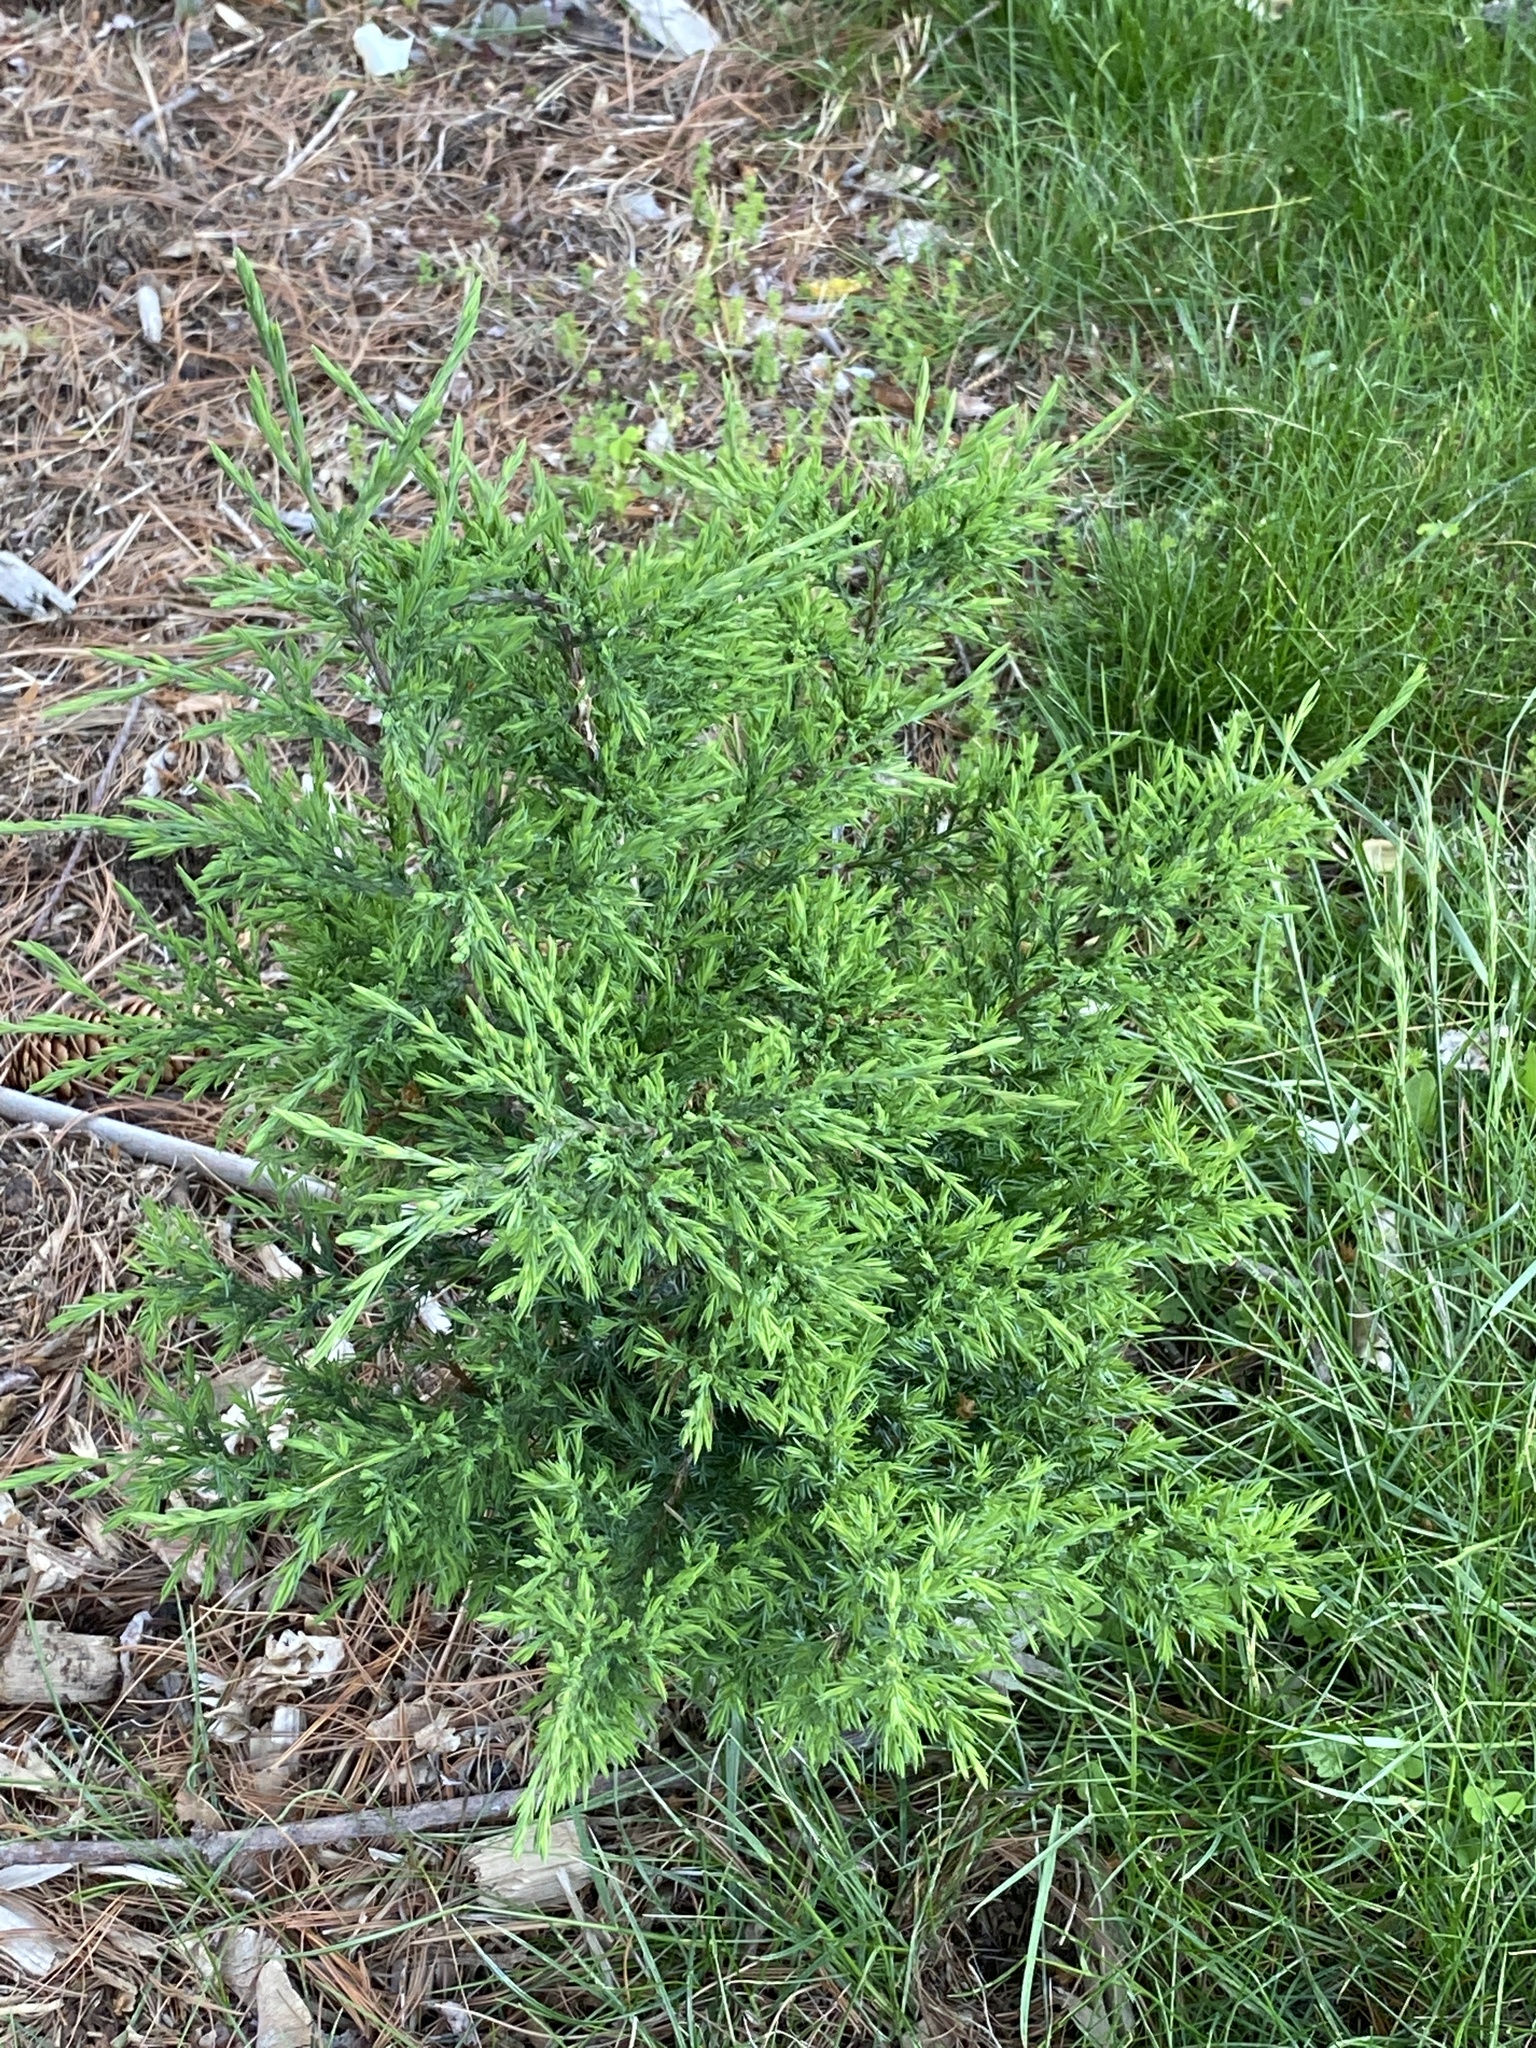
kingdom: Plantae
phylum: Tracheophyta
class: Pinopsida
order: Pinales
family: Cupressaceae
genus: Juniperus
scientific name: Juniperus virginiana
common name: Red juniper
